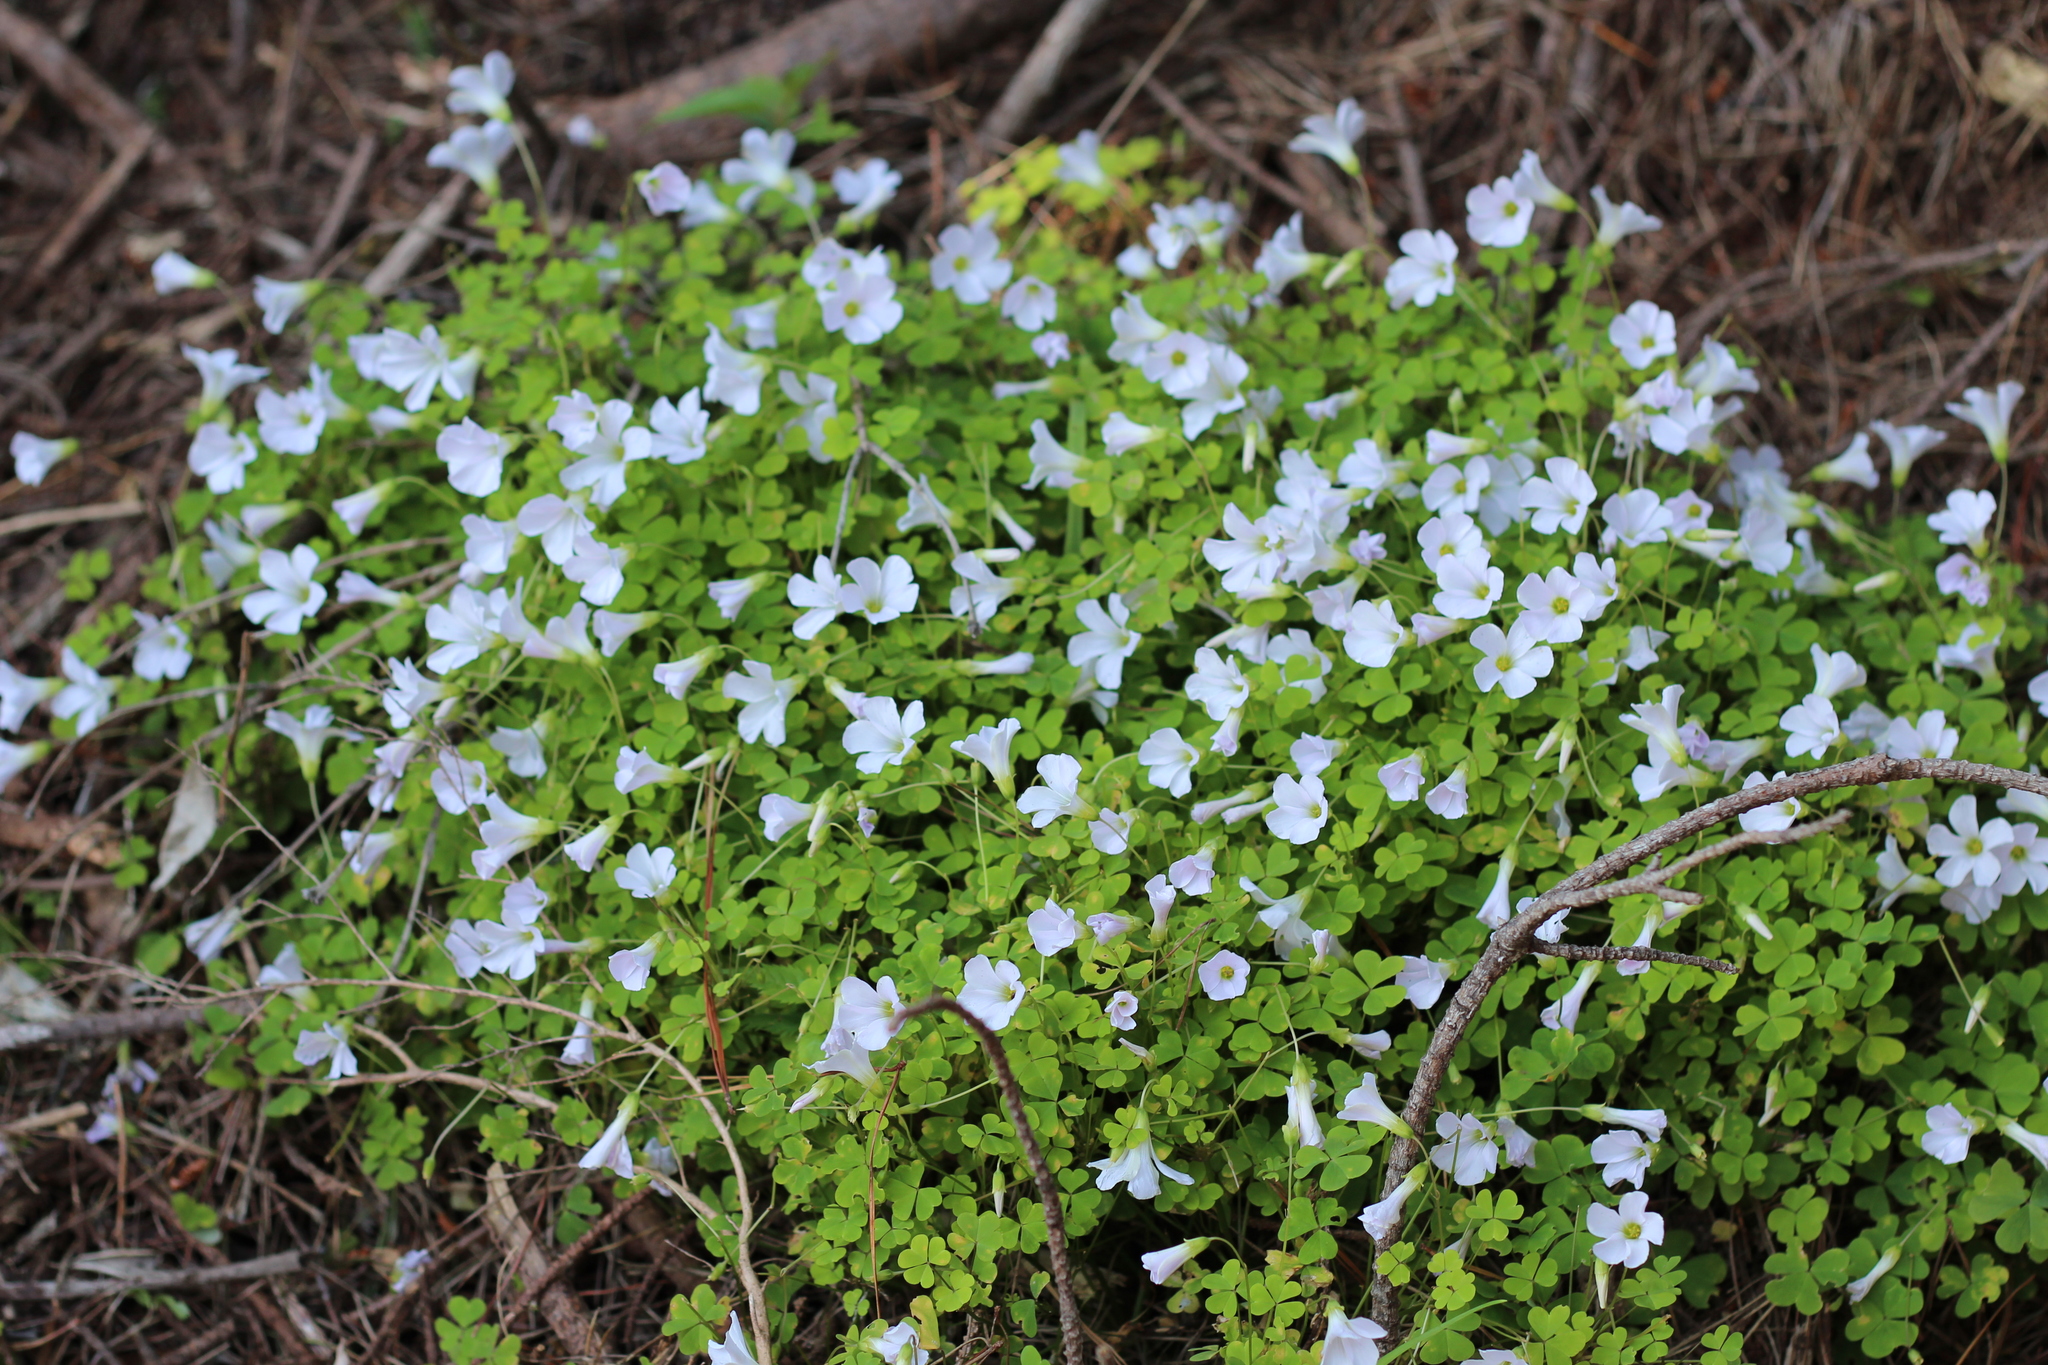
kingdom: Plantae
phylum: Tracheophyta
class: Magnoliopsida
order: Oxalidales
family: Oxalidaceae
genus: Oxalis
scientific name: Oxalis incarnata
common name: Pale pink-sorrel
